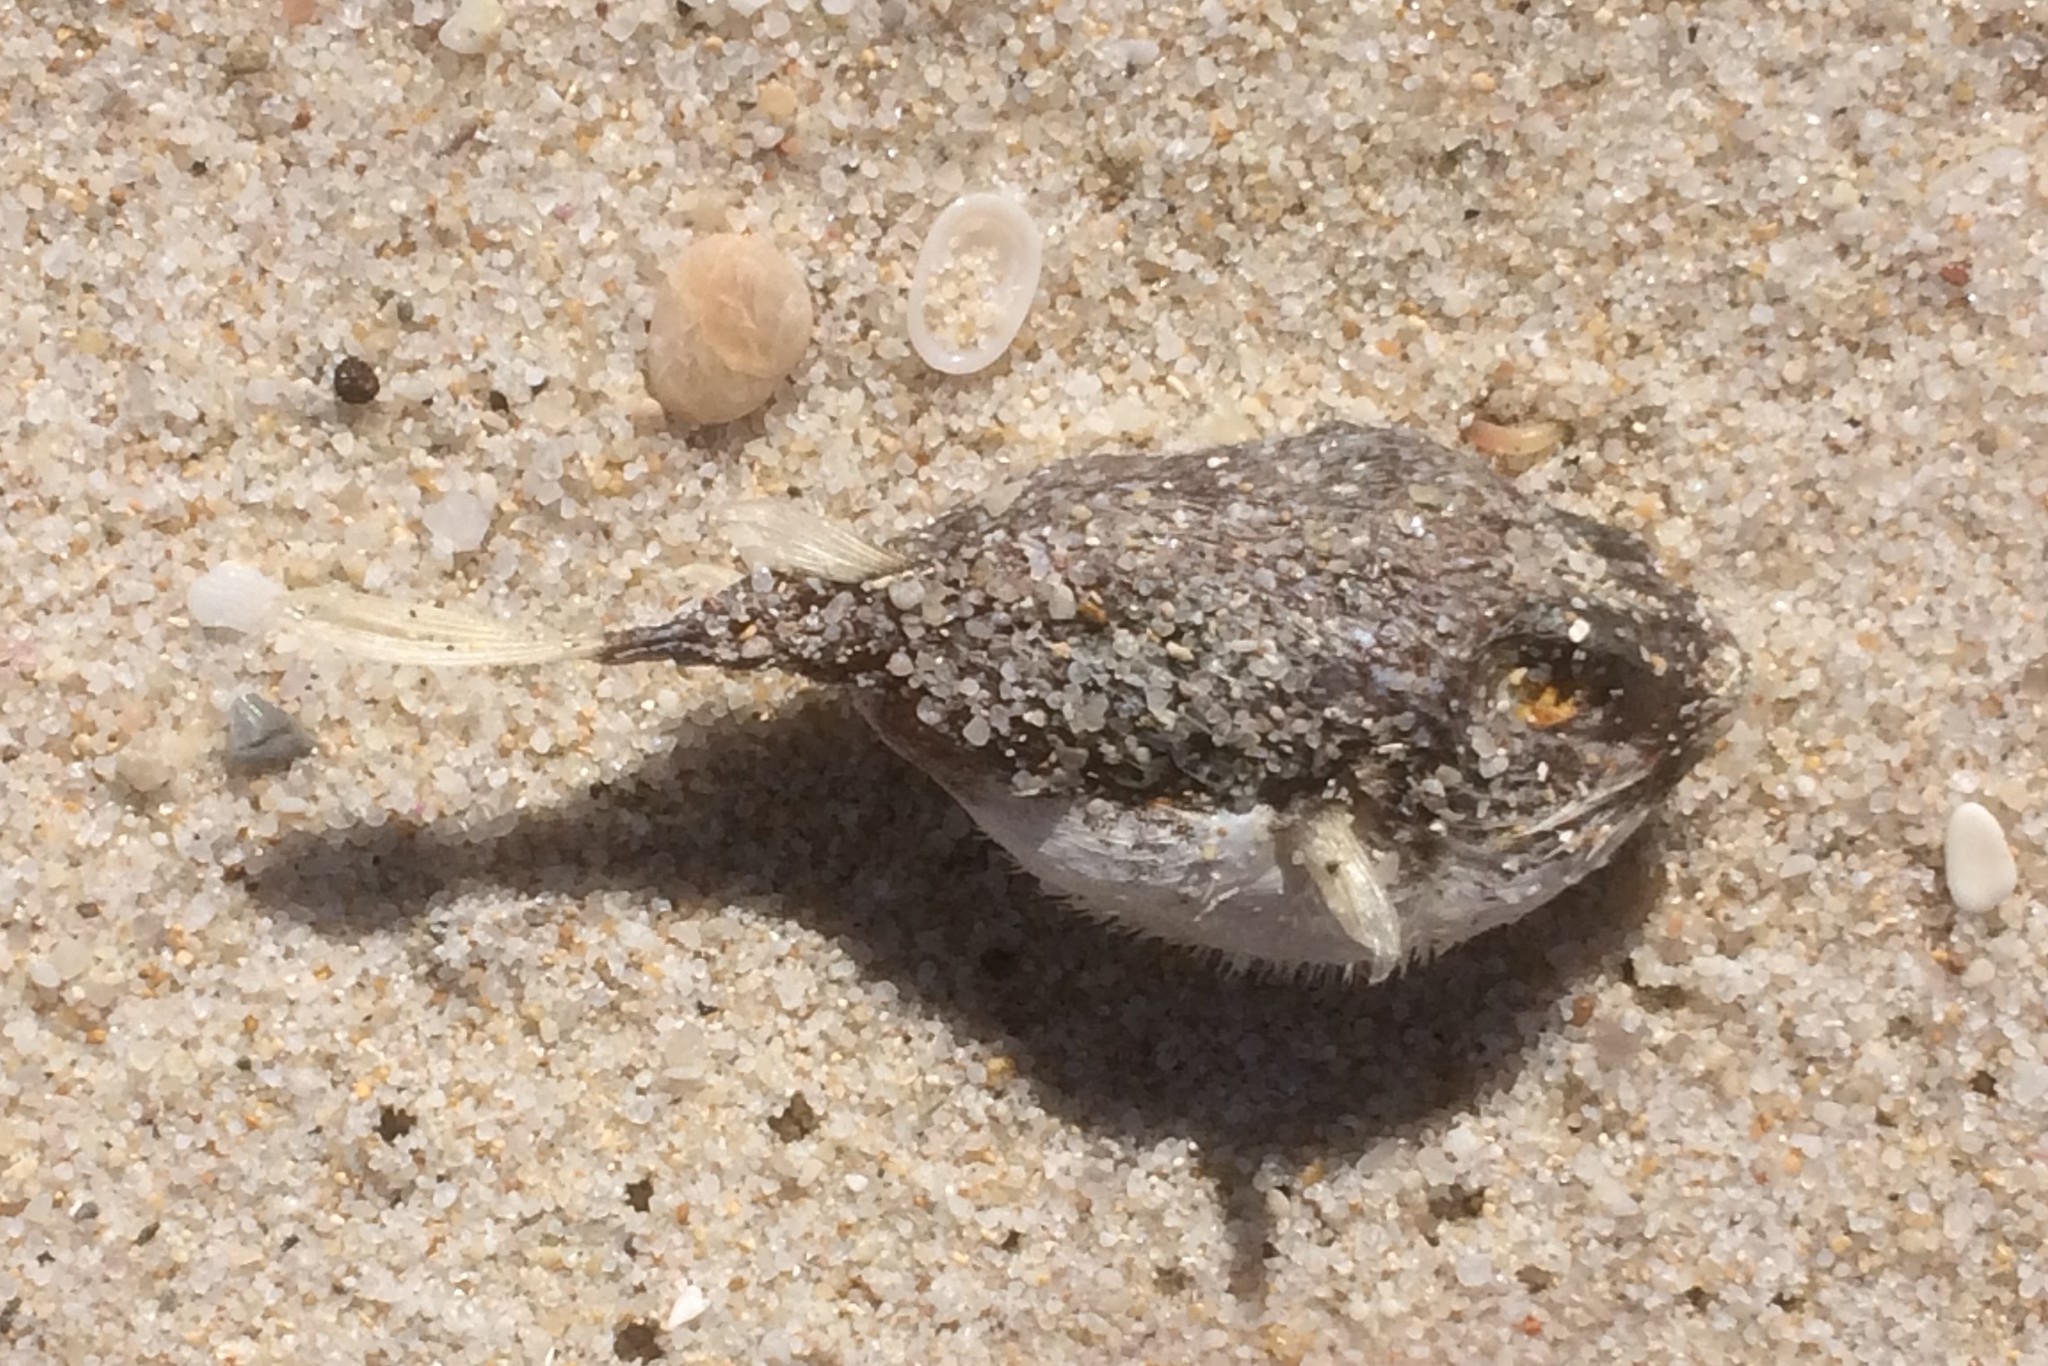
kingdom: Animalia
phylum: Chordata
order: Tetraodontiformes
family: Tetraodontidae
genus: Polyspina
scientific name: Polyspina piosae
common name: Orange-barred pufferfish
